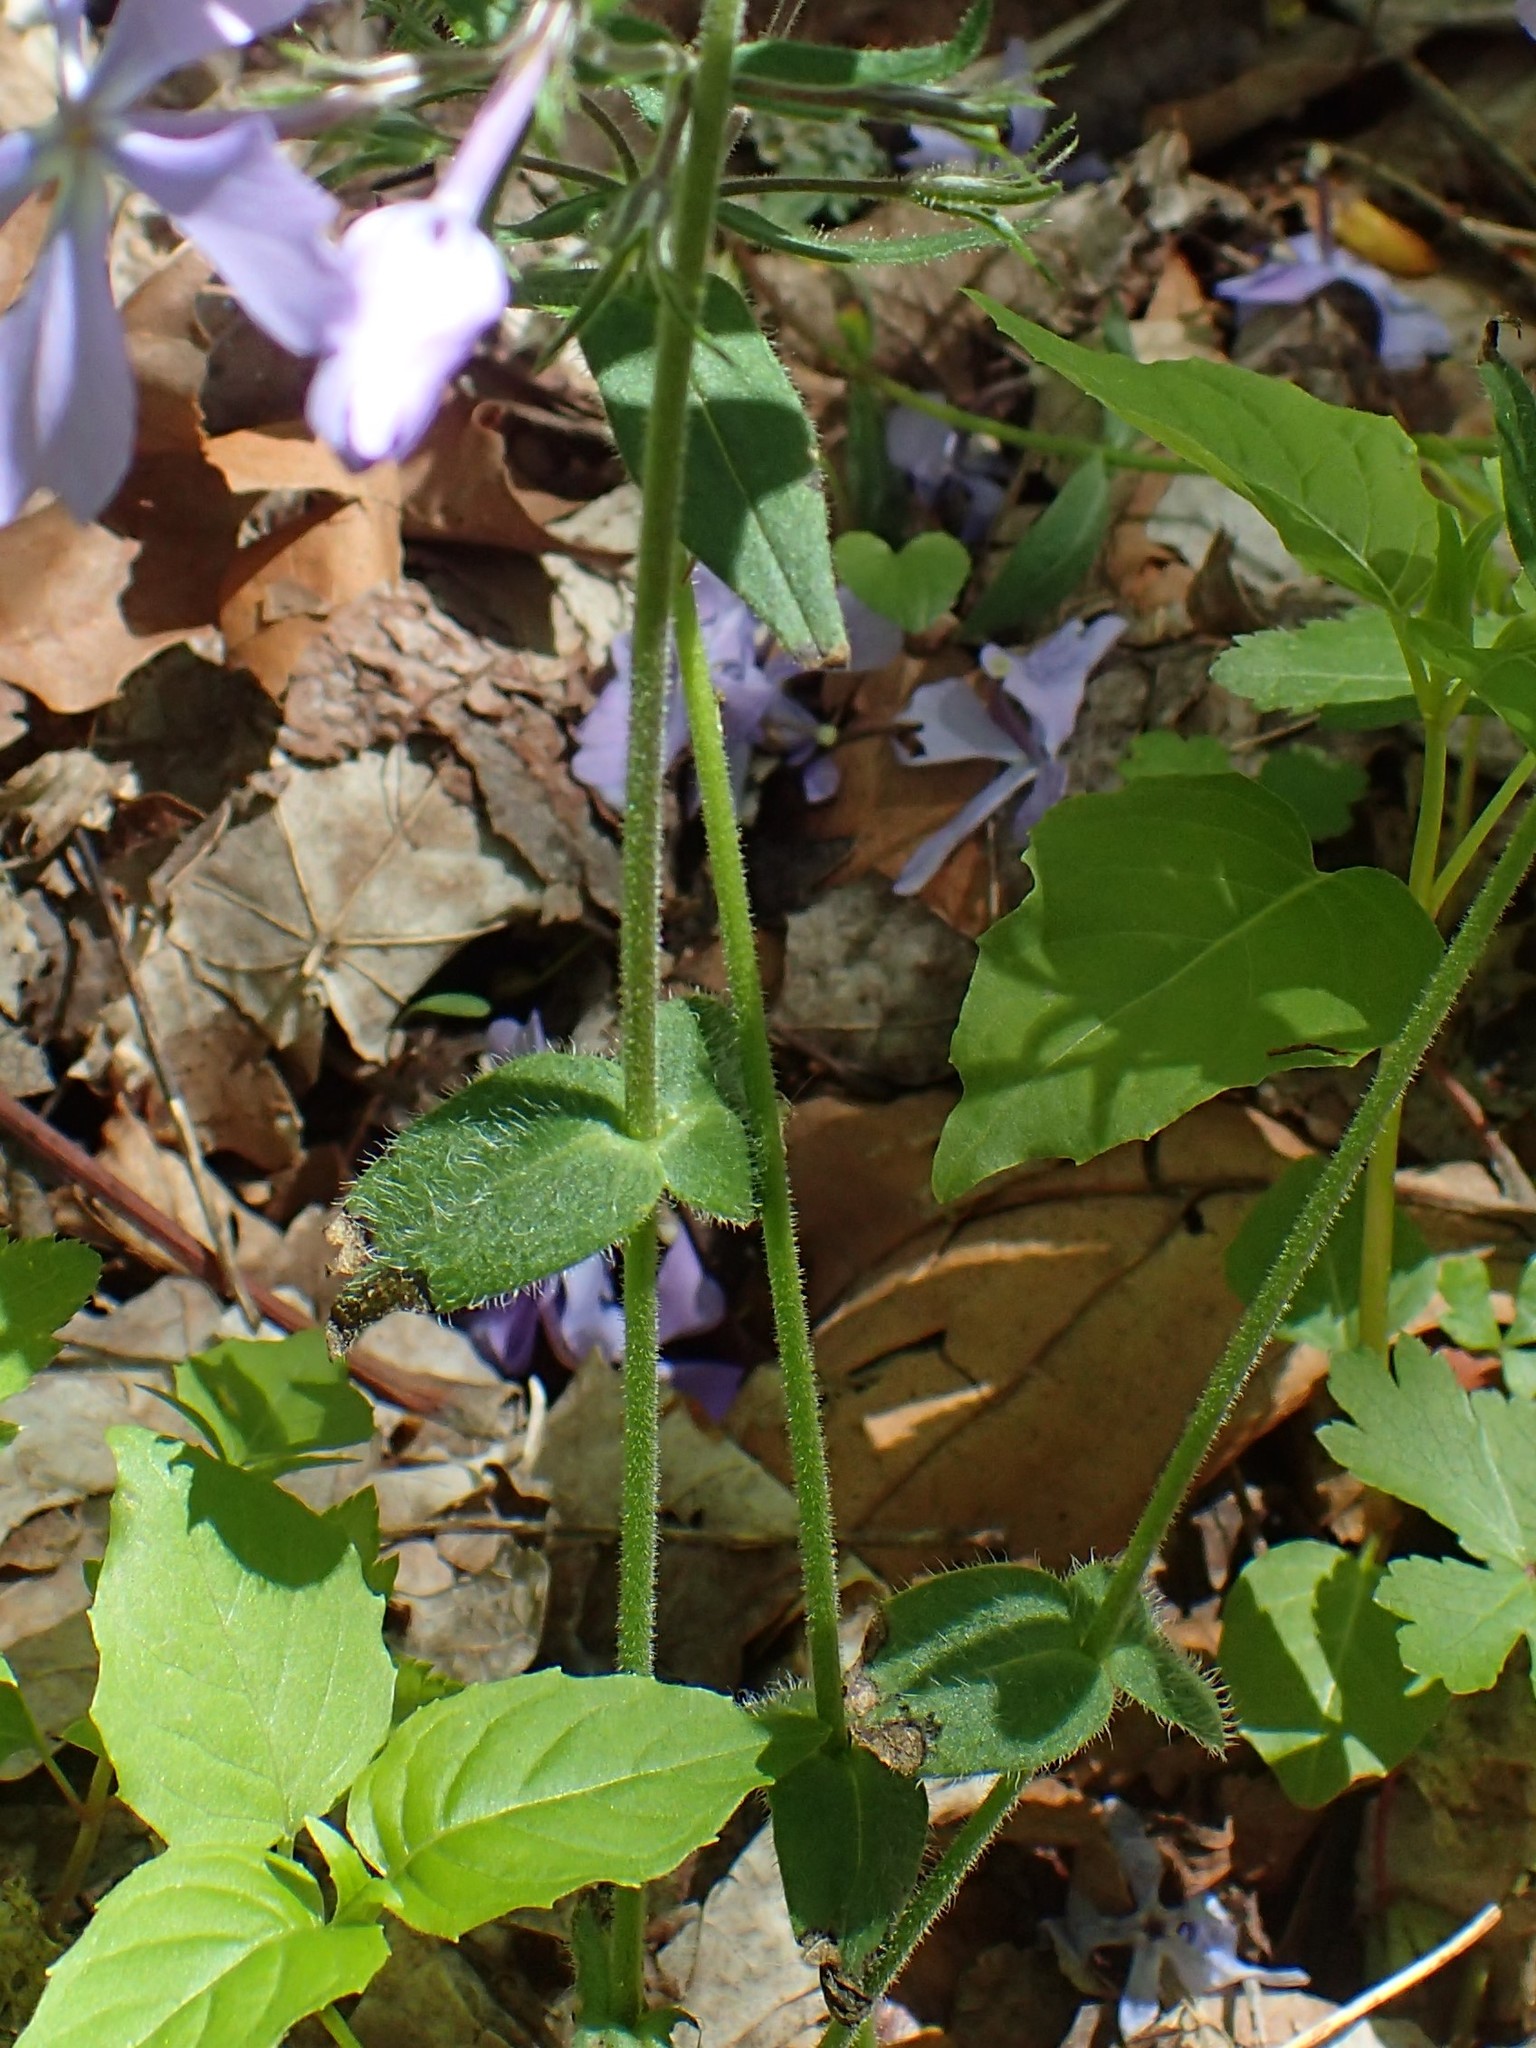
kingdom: Plantae
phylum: Tracheophyta
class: Magnoliopsida
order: Ericales
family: Polemoniaceae
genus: Phlox
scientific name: Phlox divaricata
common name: Blue phlox
